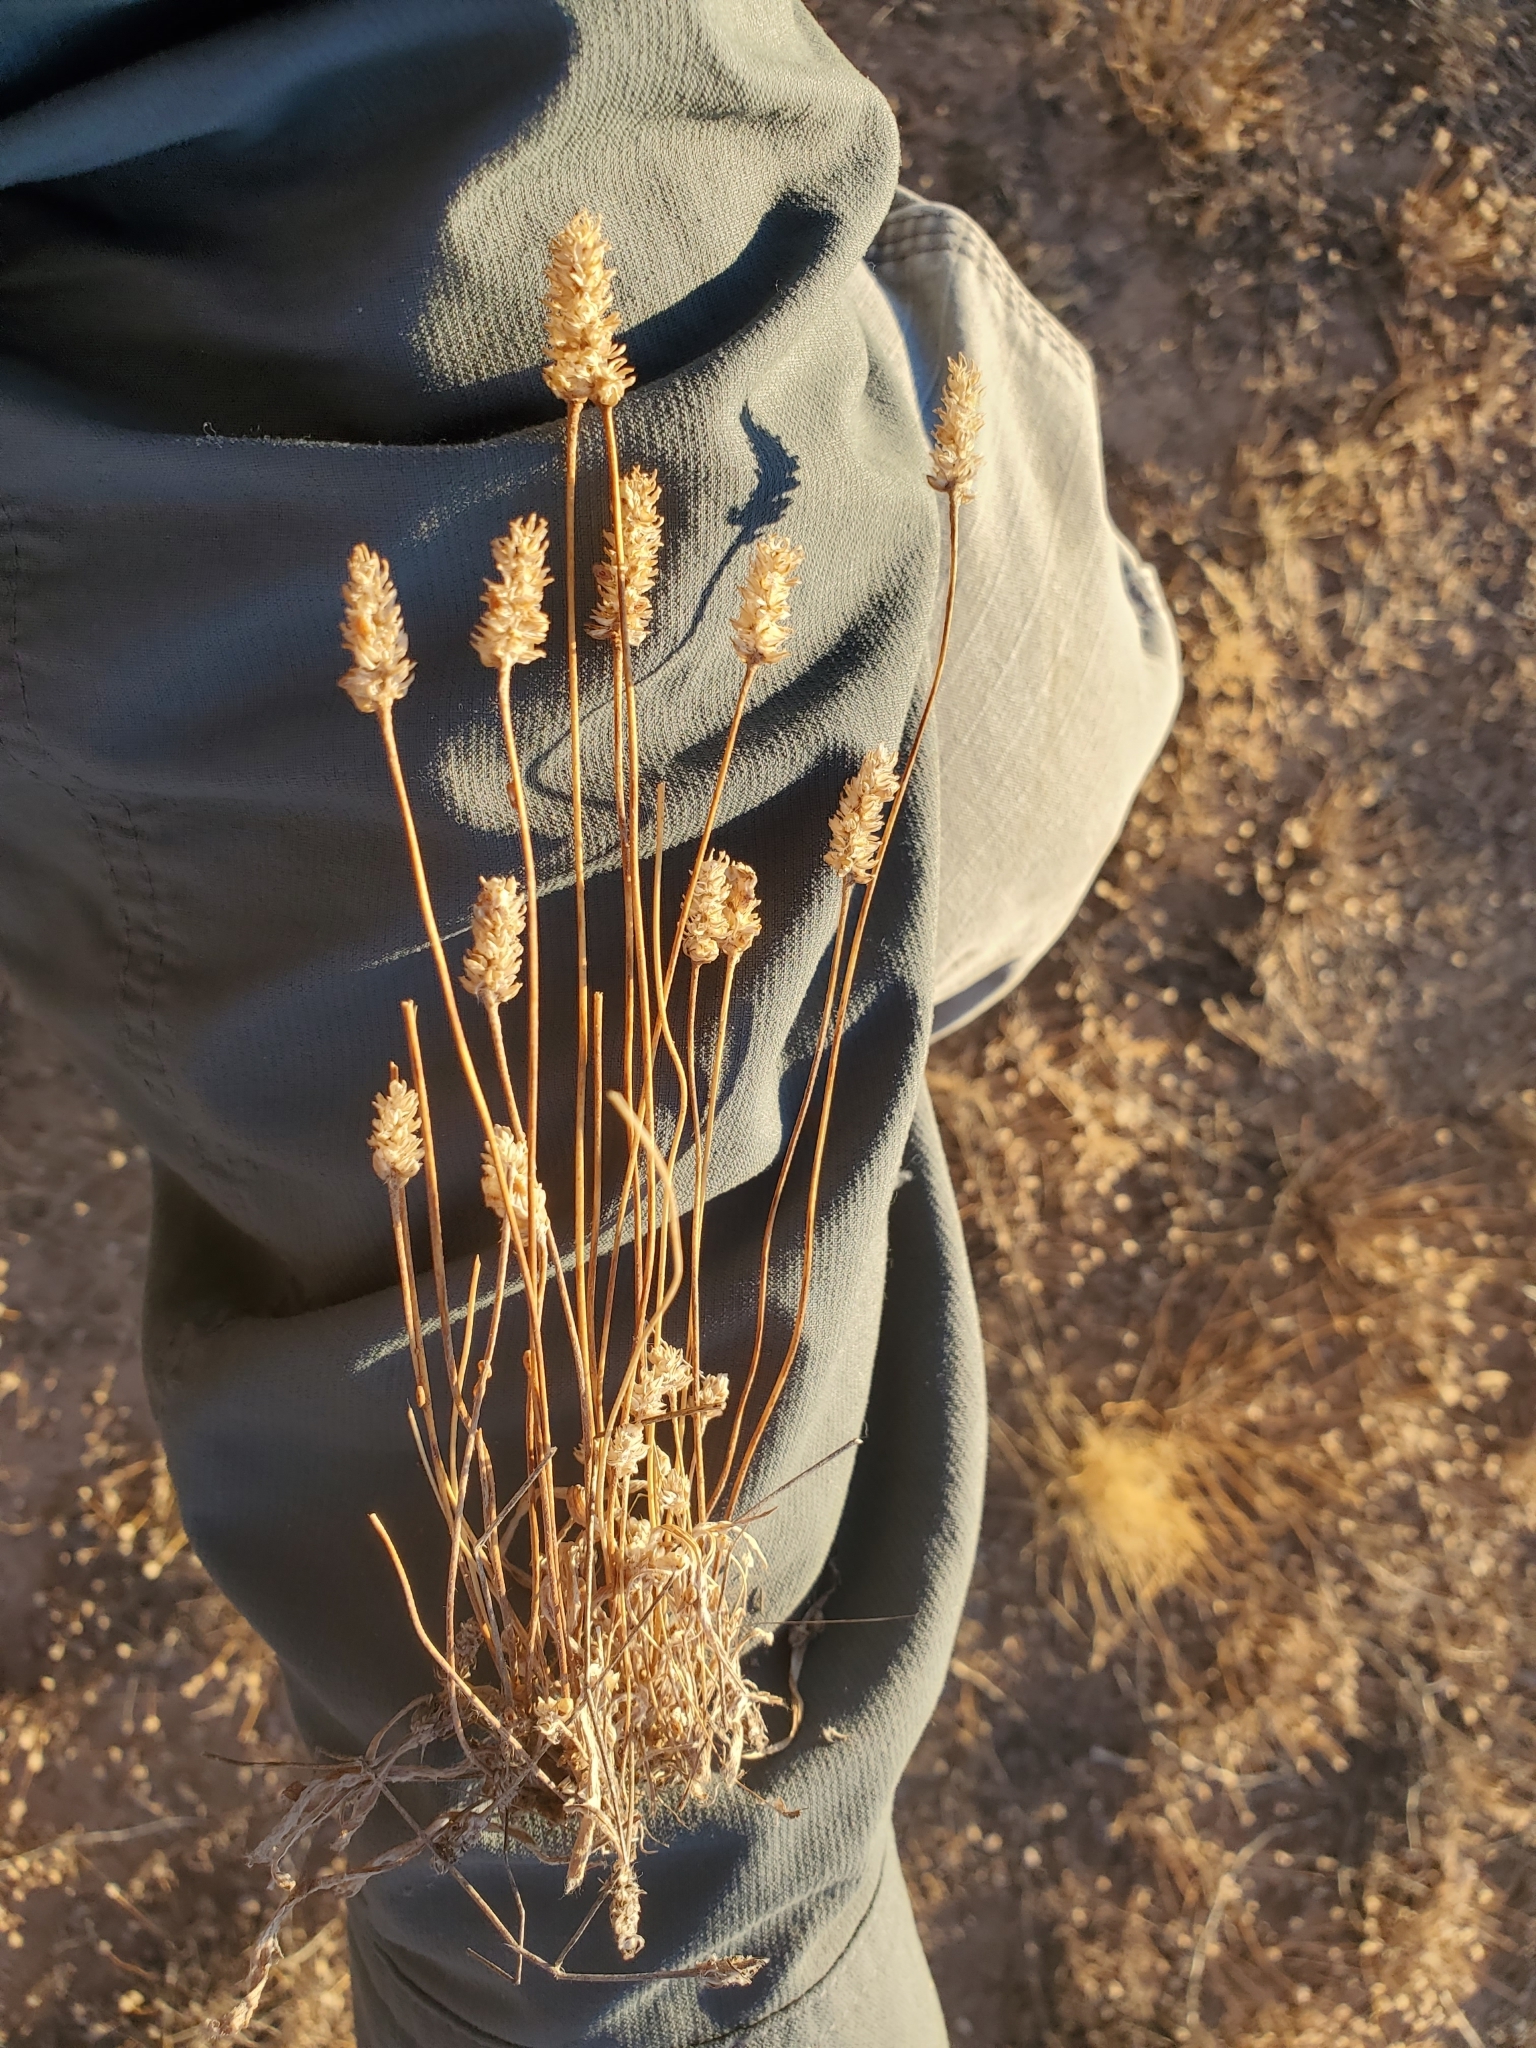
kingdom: Plantae
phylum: Tracheophyta
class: Magnoliopsida
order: Lamiales
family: Plantaginaceae
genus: Plantago
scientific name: Plantago ovata
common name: Blond plantain
